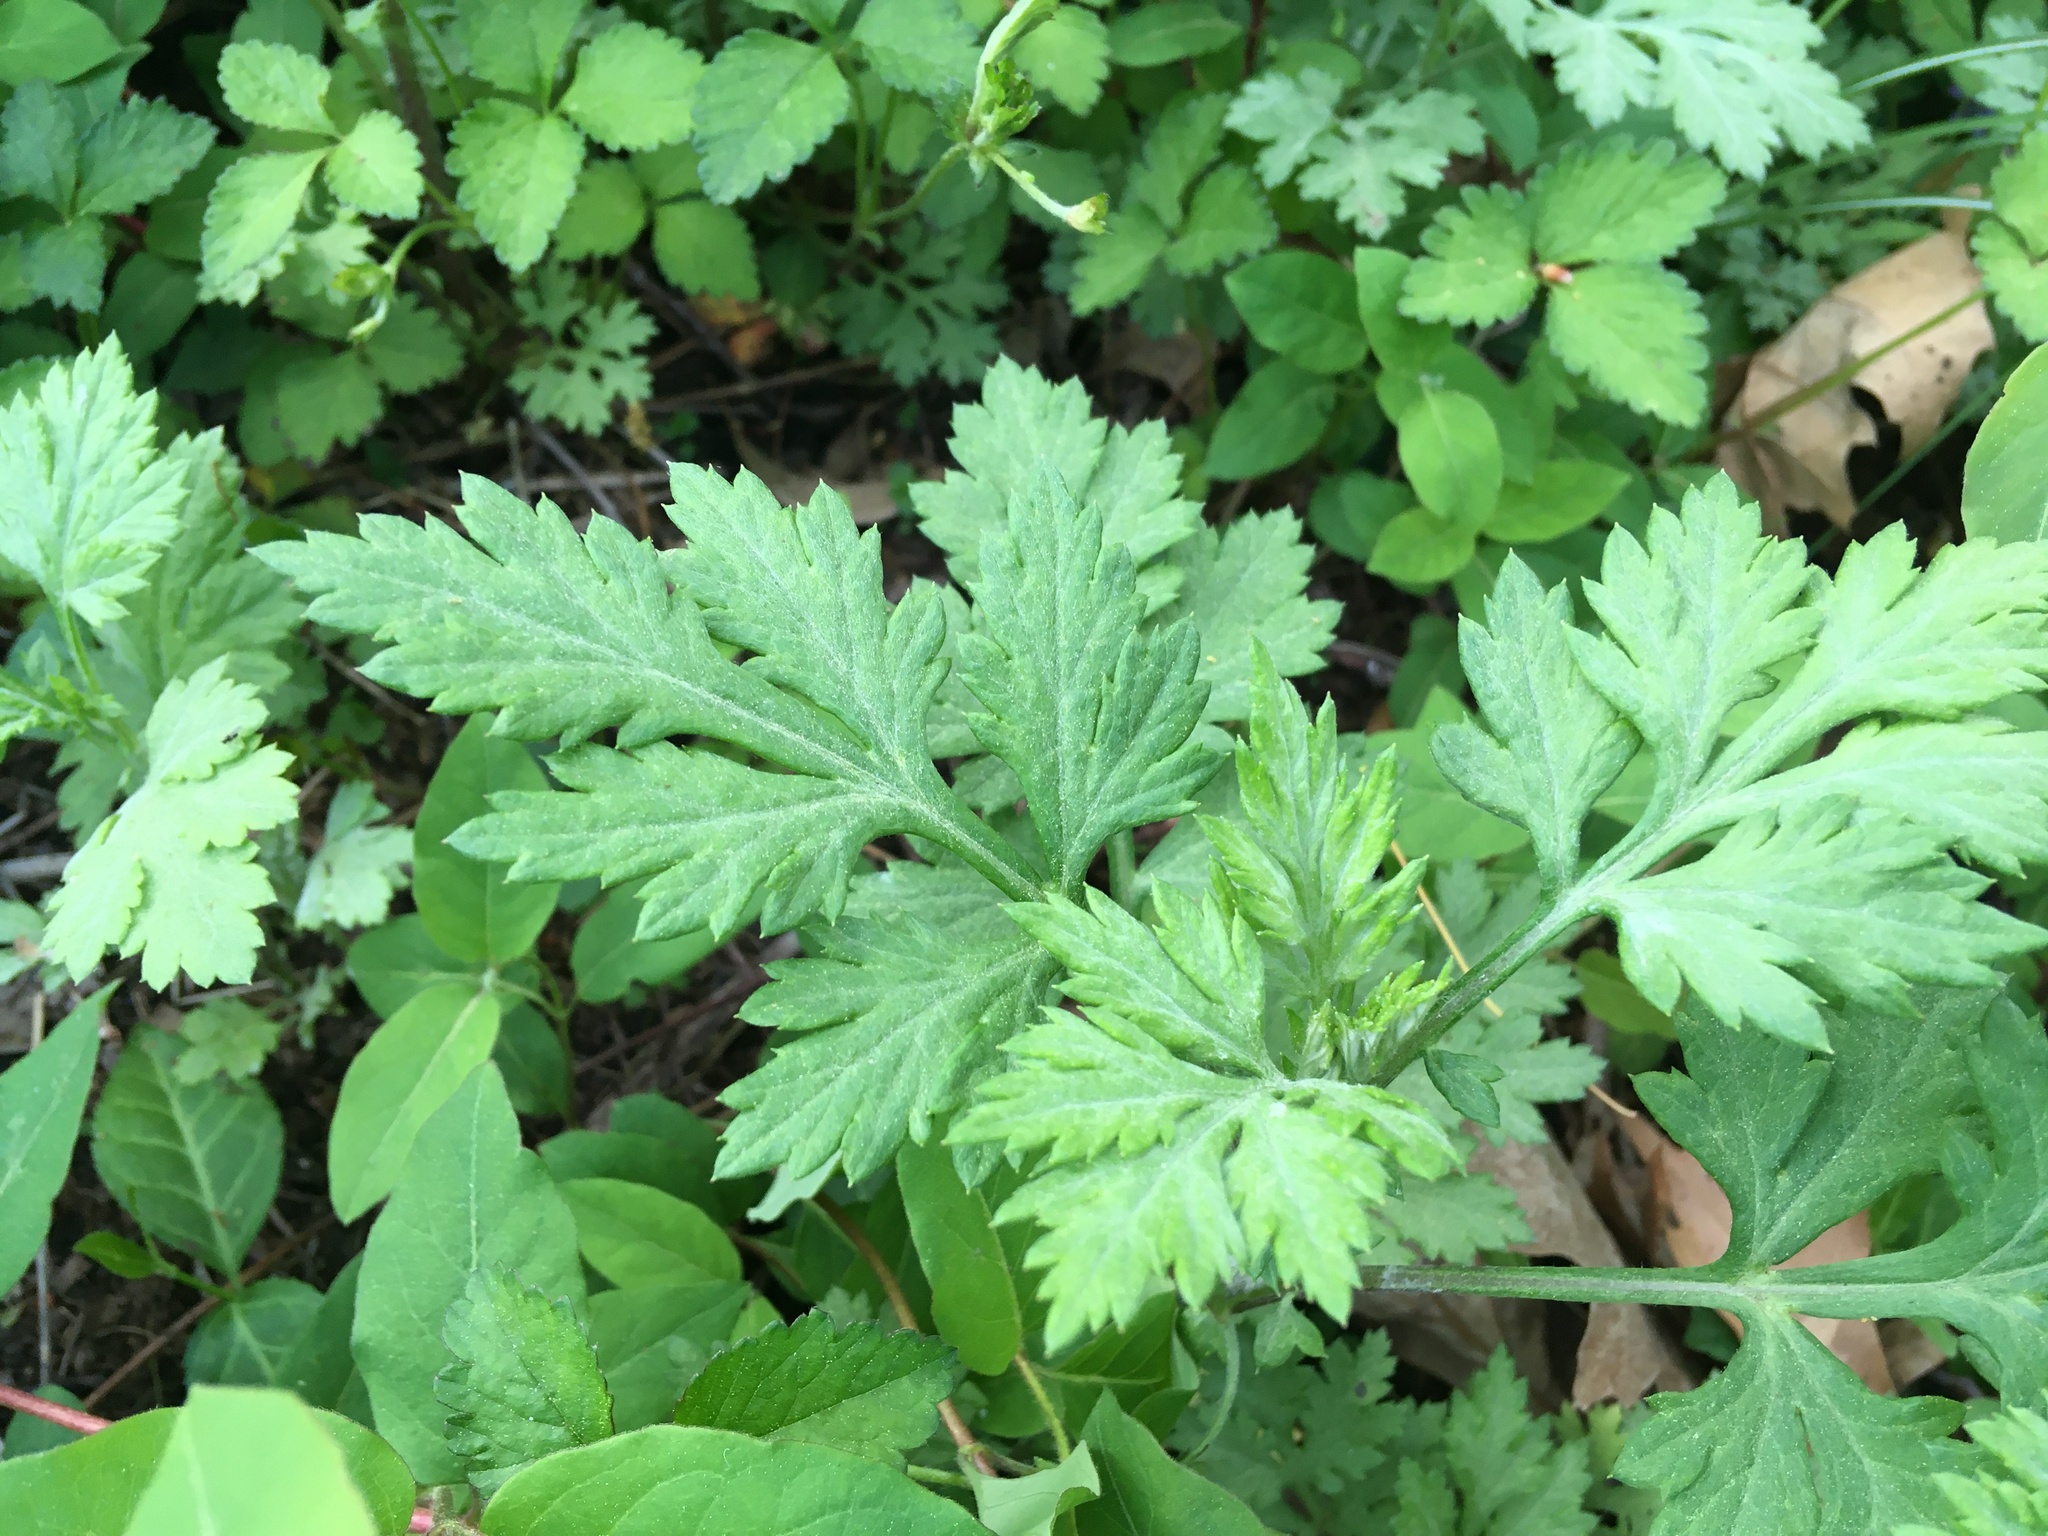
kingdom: Plantae
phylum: Tracheophyta
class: Magnoliopsida
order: Asterales
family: Asteraceae
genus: Artemisia
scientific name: Artemisia vulgaris
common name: Mugwort
